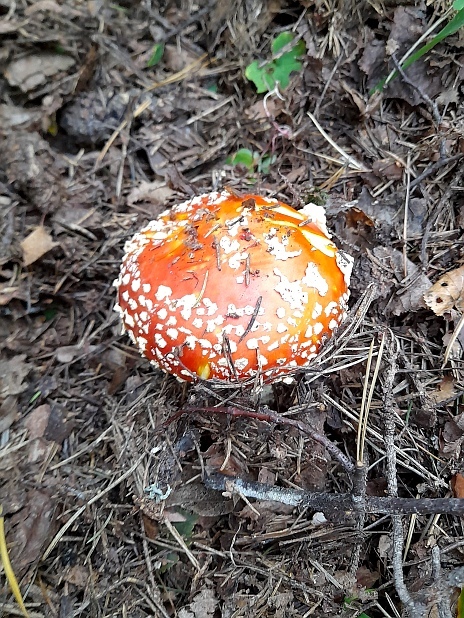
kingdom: Fungi
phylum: Basidiomycota
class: Agaricomycetes
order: Agaricales
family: Amanitaceae
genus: Amanita
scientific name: Amanita muscaria
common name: Fly agaric
